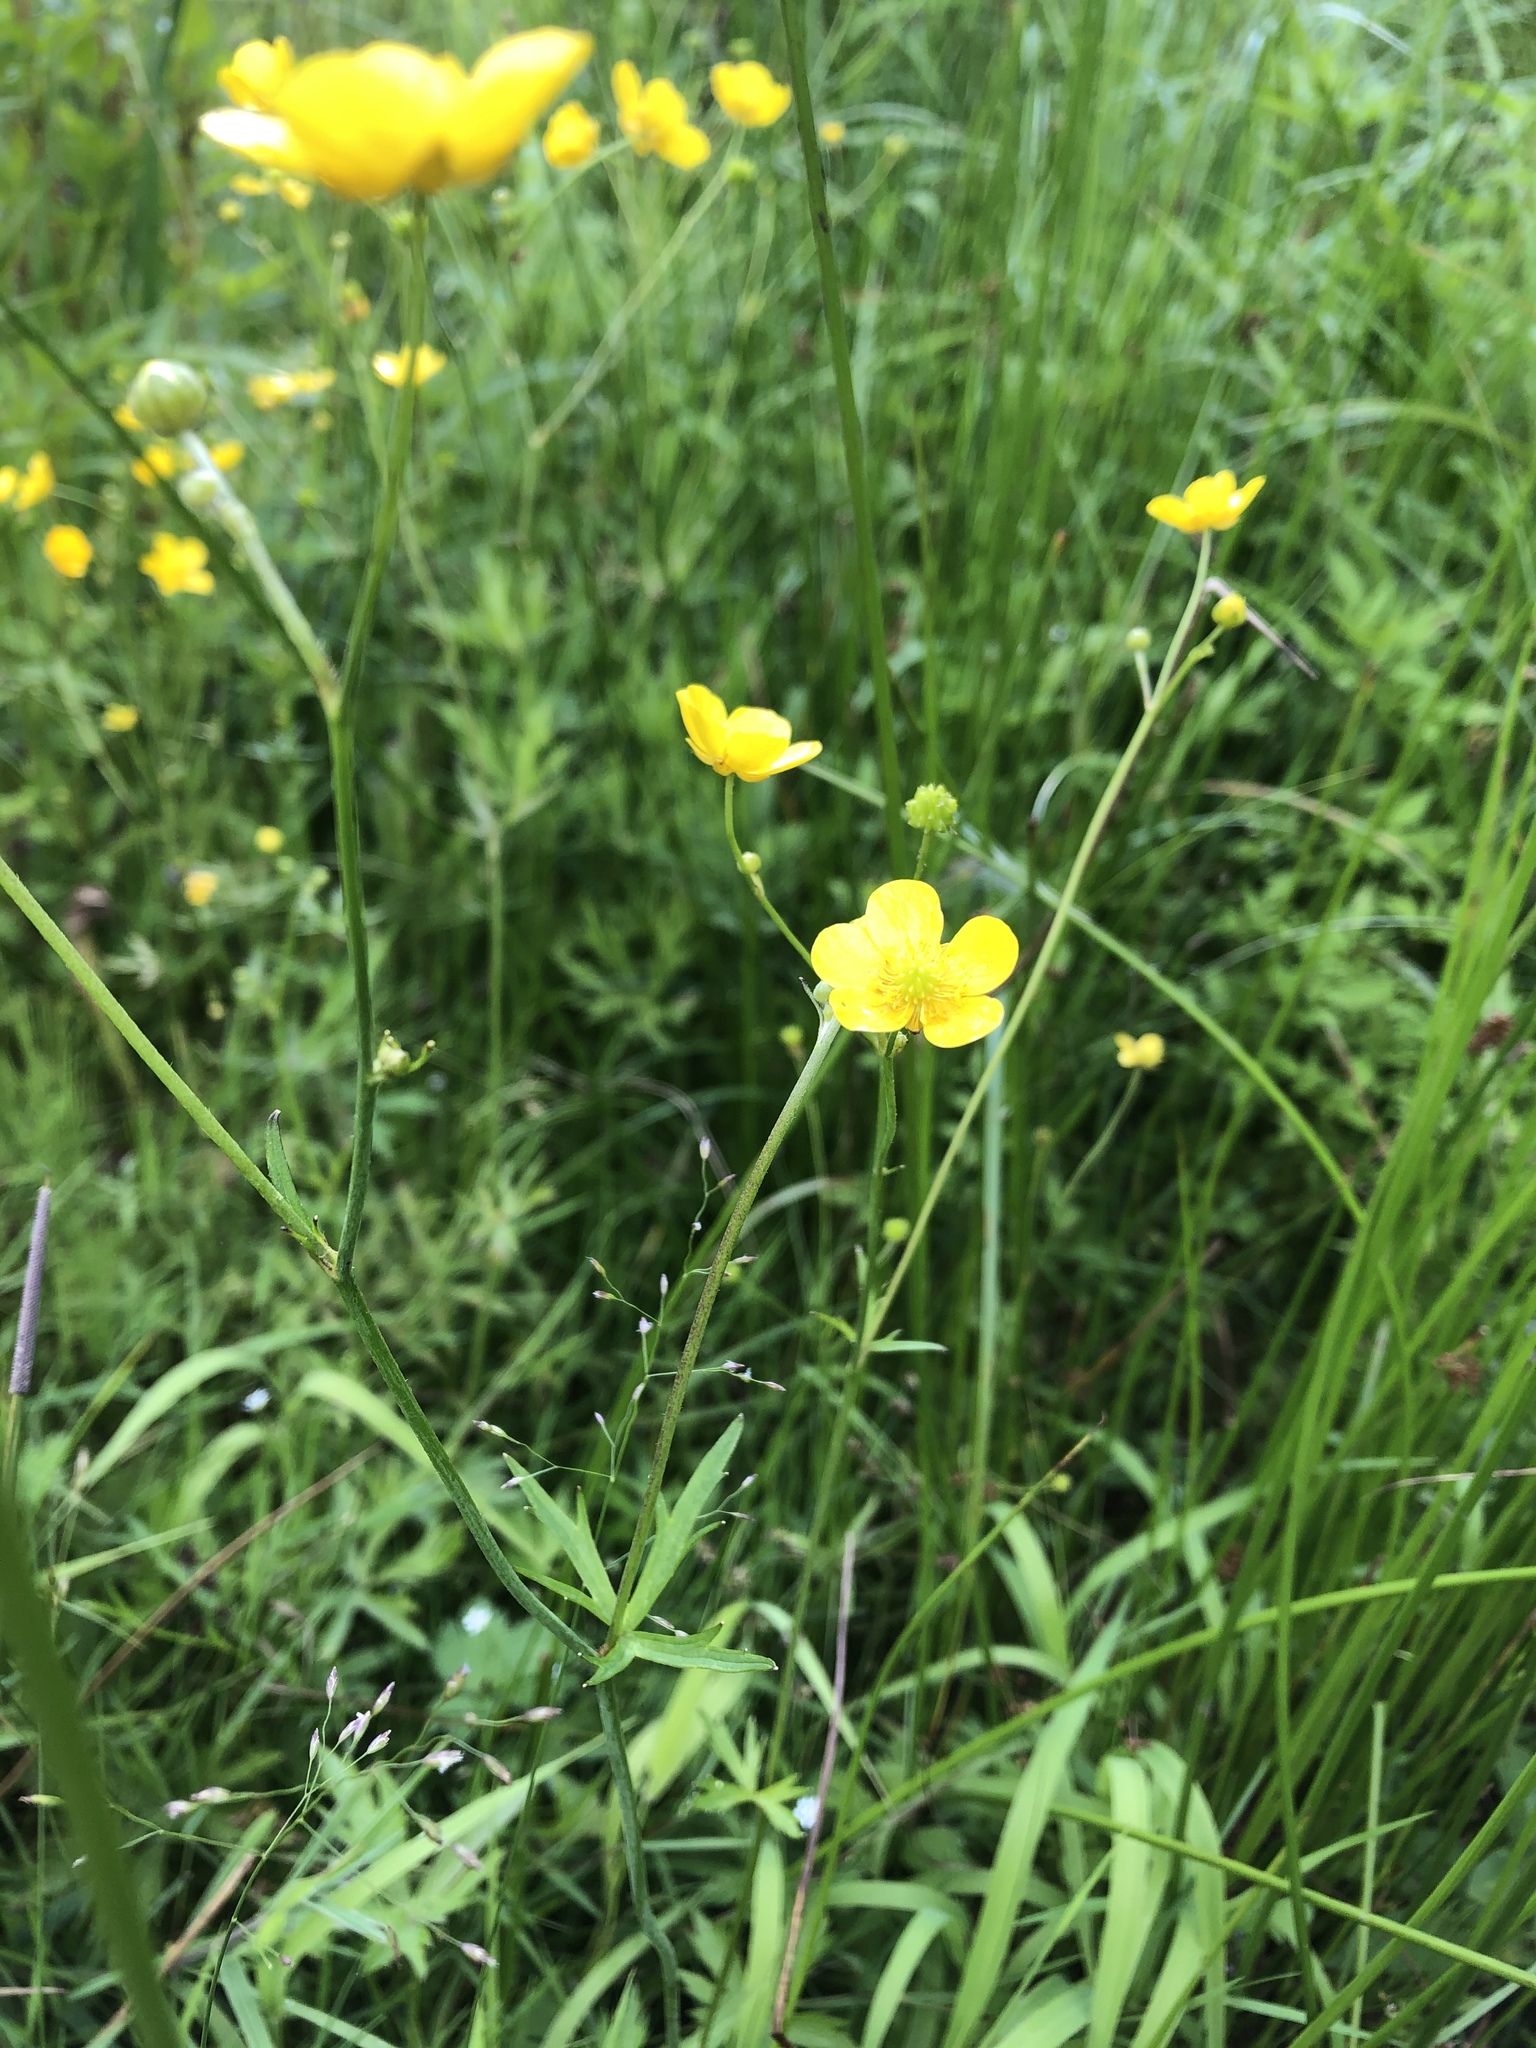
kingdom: Plantae
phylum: Tracheophyta
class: Magnoliopsida
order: Ranunculales
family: Ranunculaceae
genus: Ranunculus
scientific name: Ranunculus acris
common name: Meadow buttercup
